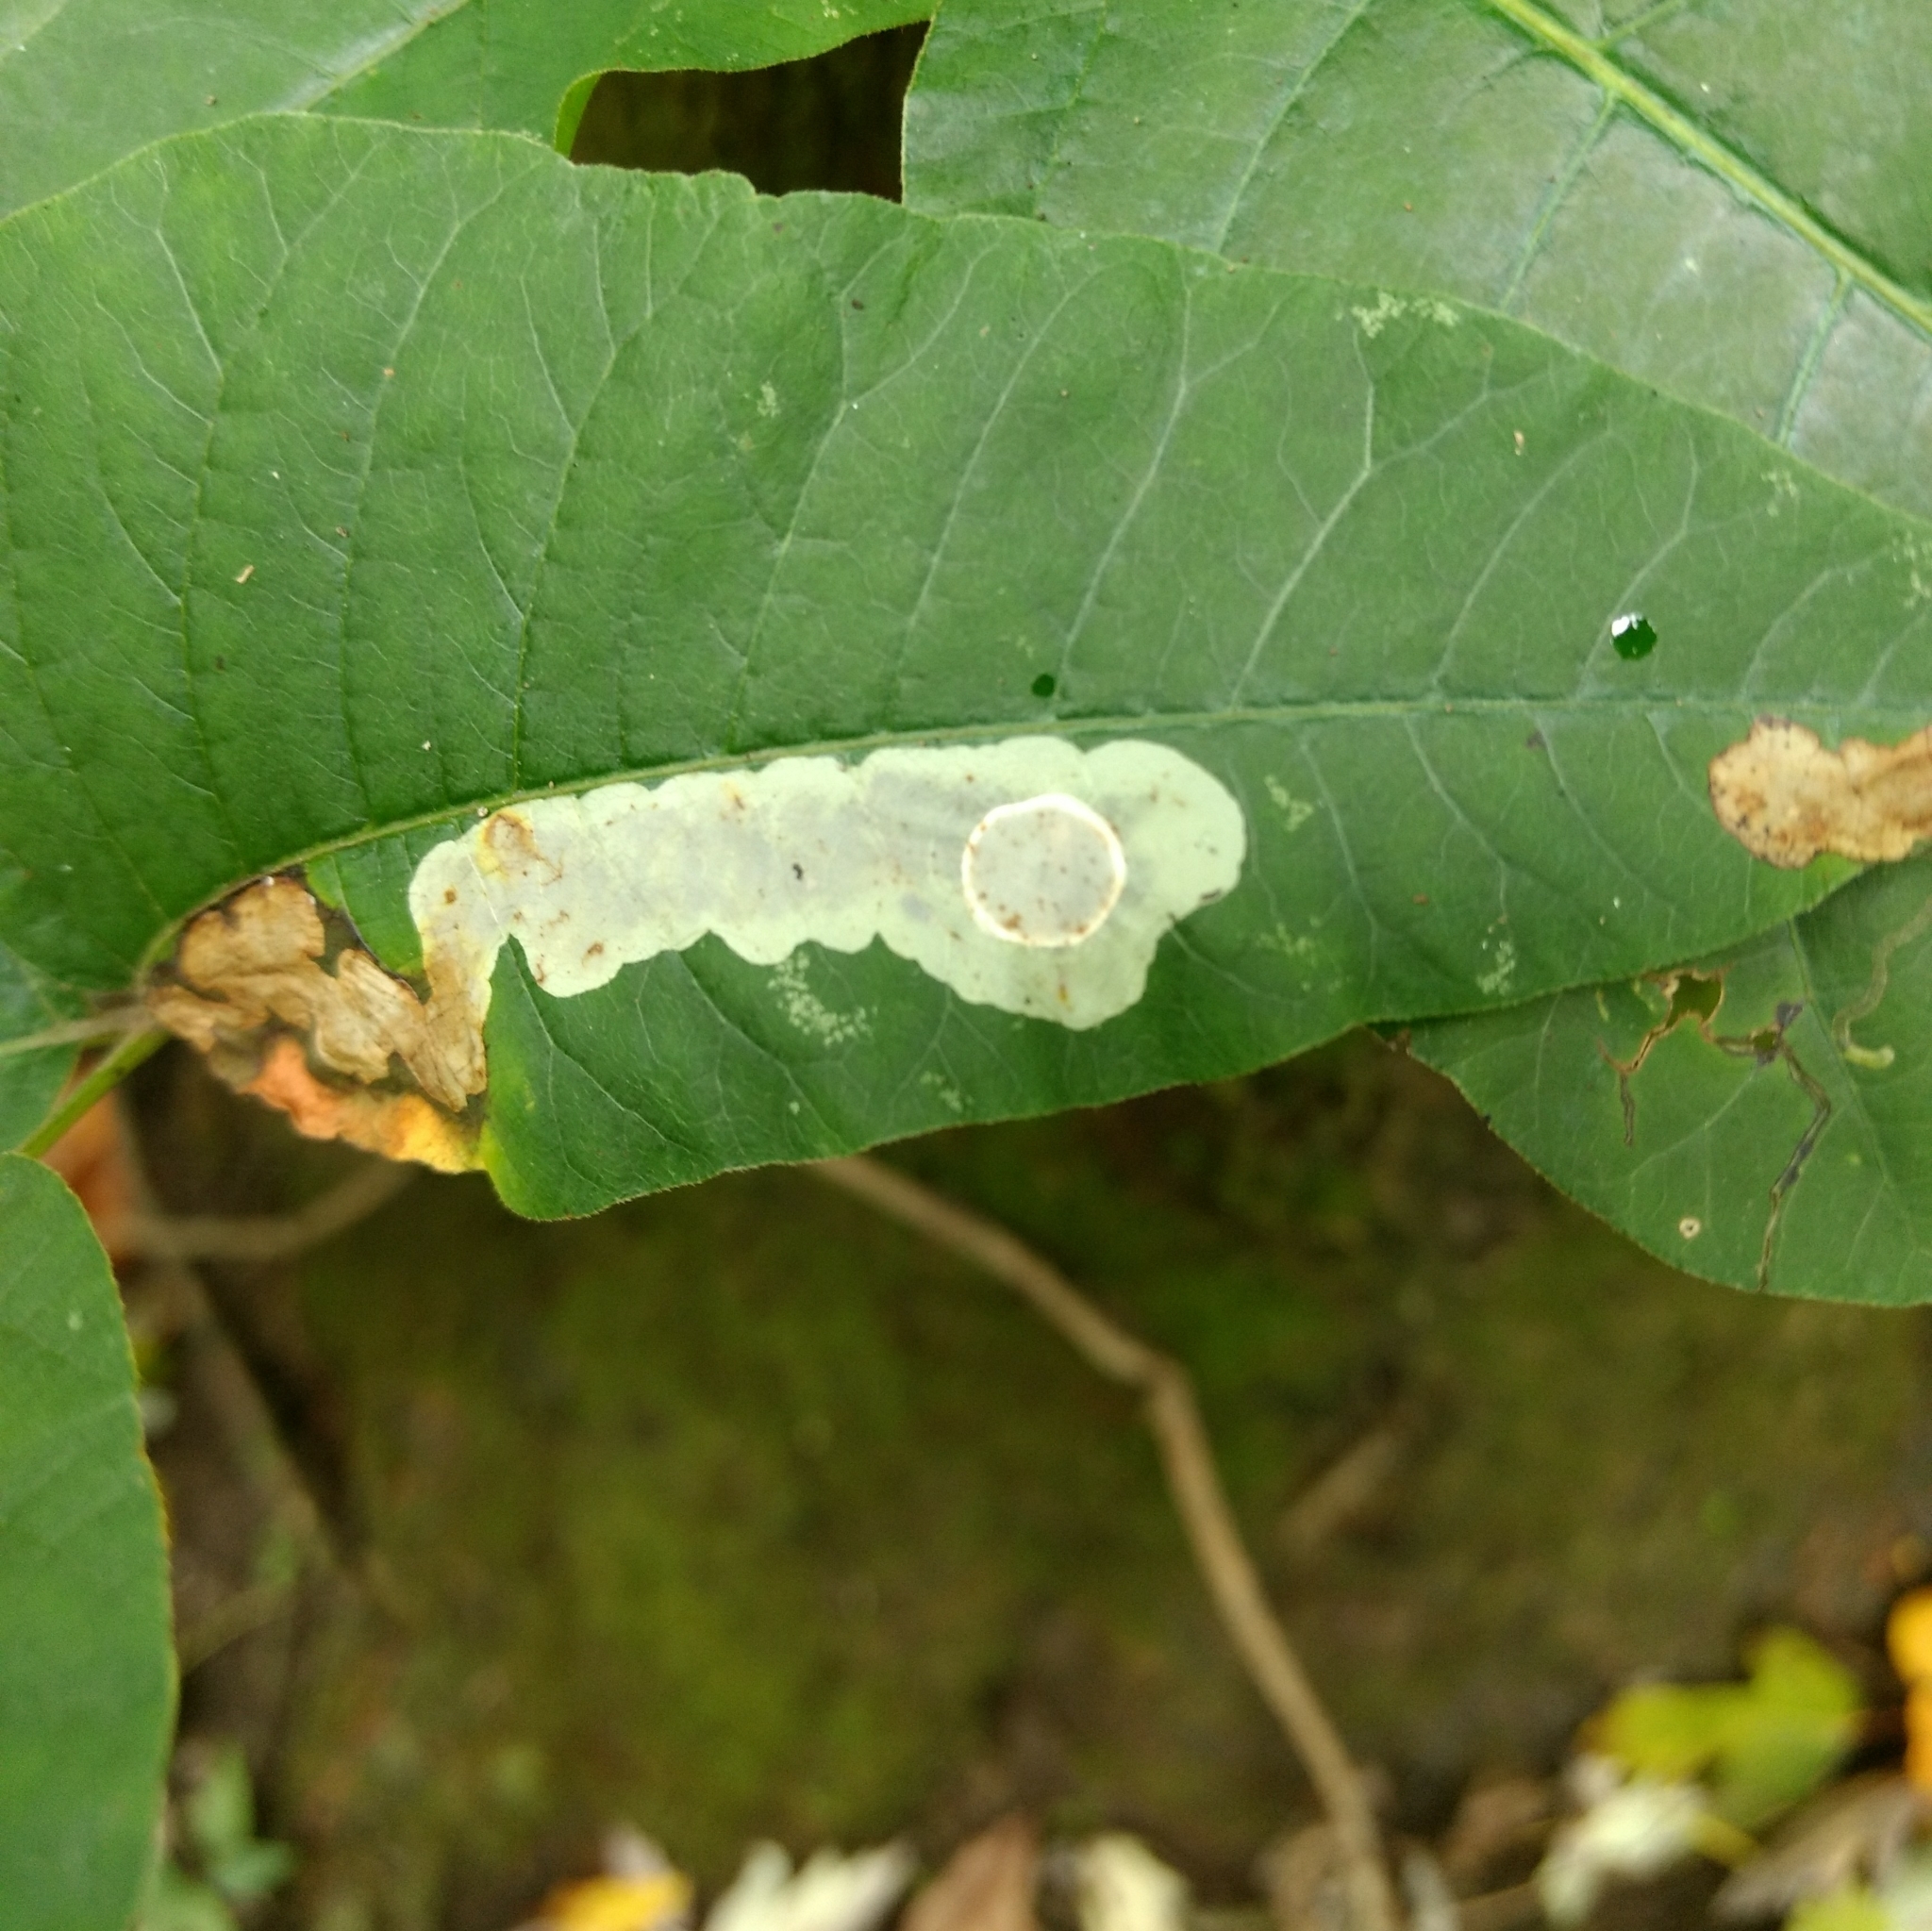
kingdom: Animalia
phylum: Arthropoda
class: Insecta
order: Lepidoptera
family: Gracillariidae
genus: Cameraria
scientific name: Cameraria guttifinitella
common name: Poison ivy leaf-miner moth
